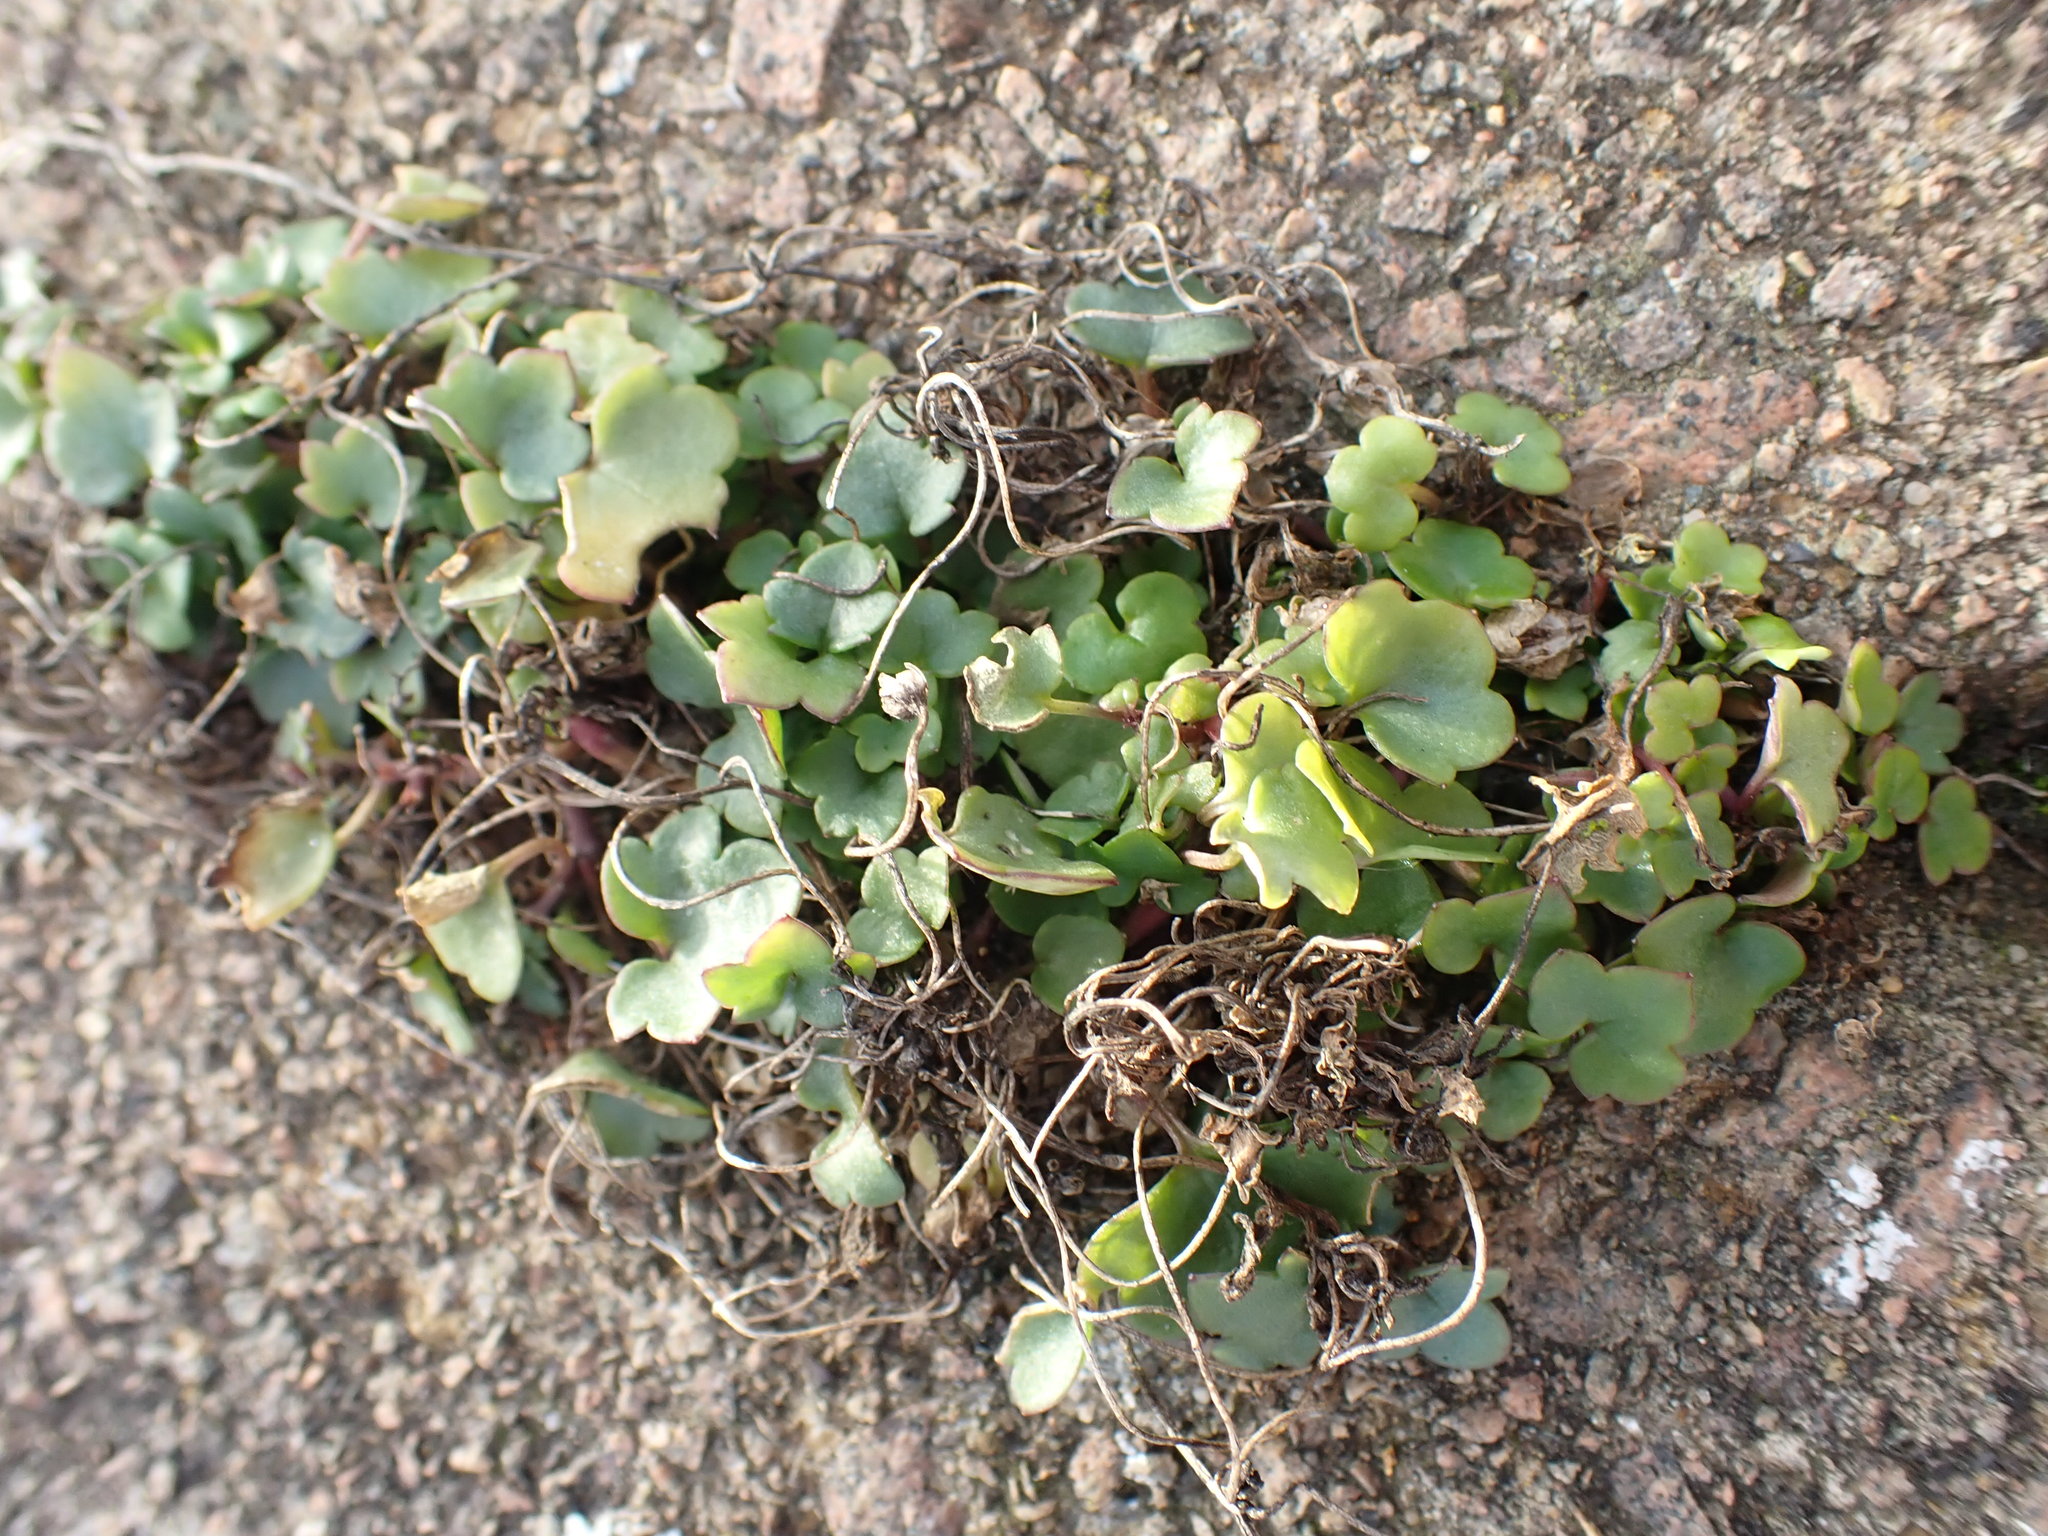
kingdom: Plantae
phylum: Tracheophyta
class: Magnoliopsida
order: Lamiales
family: Plantaginaceae
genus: Cymbalaria
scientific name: Cymbalaria muralis
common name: Ivy-leaved toadflax
